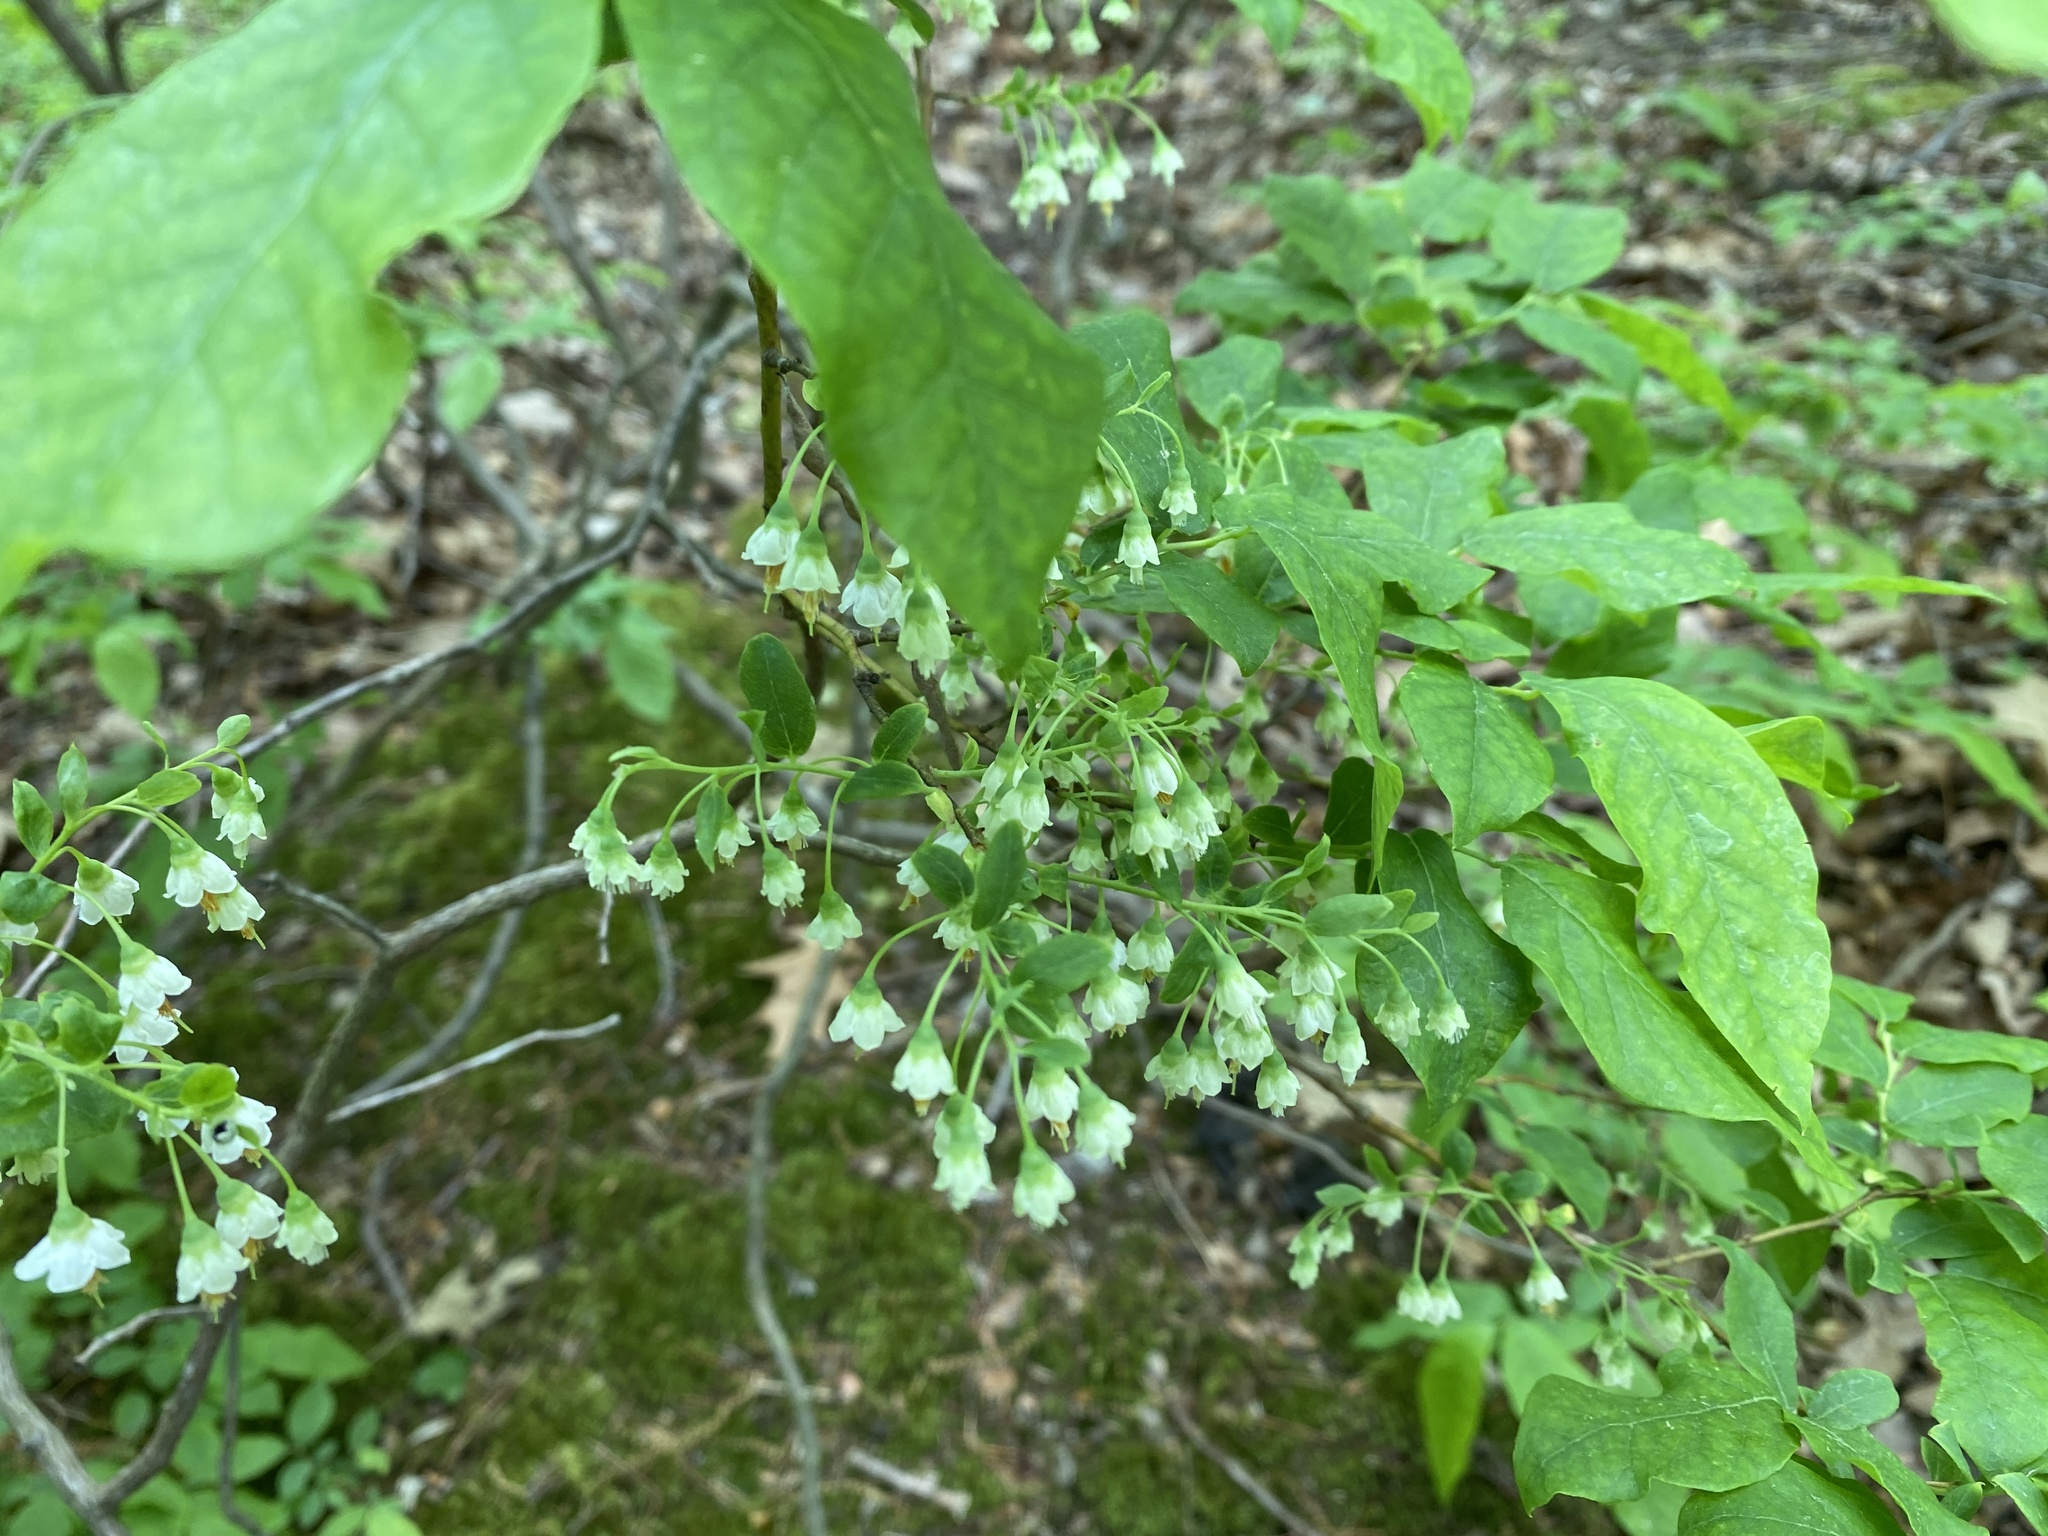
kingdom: Plantae
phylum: Tracheophyta
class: Magnoliopsida
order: Ericales
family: Ericaceae
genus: Vaccinium
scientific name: Vaccinium stamineum
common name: Deerberry
